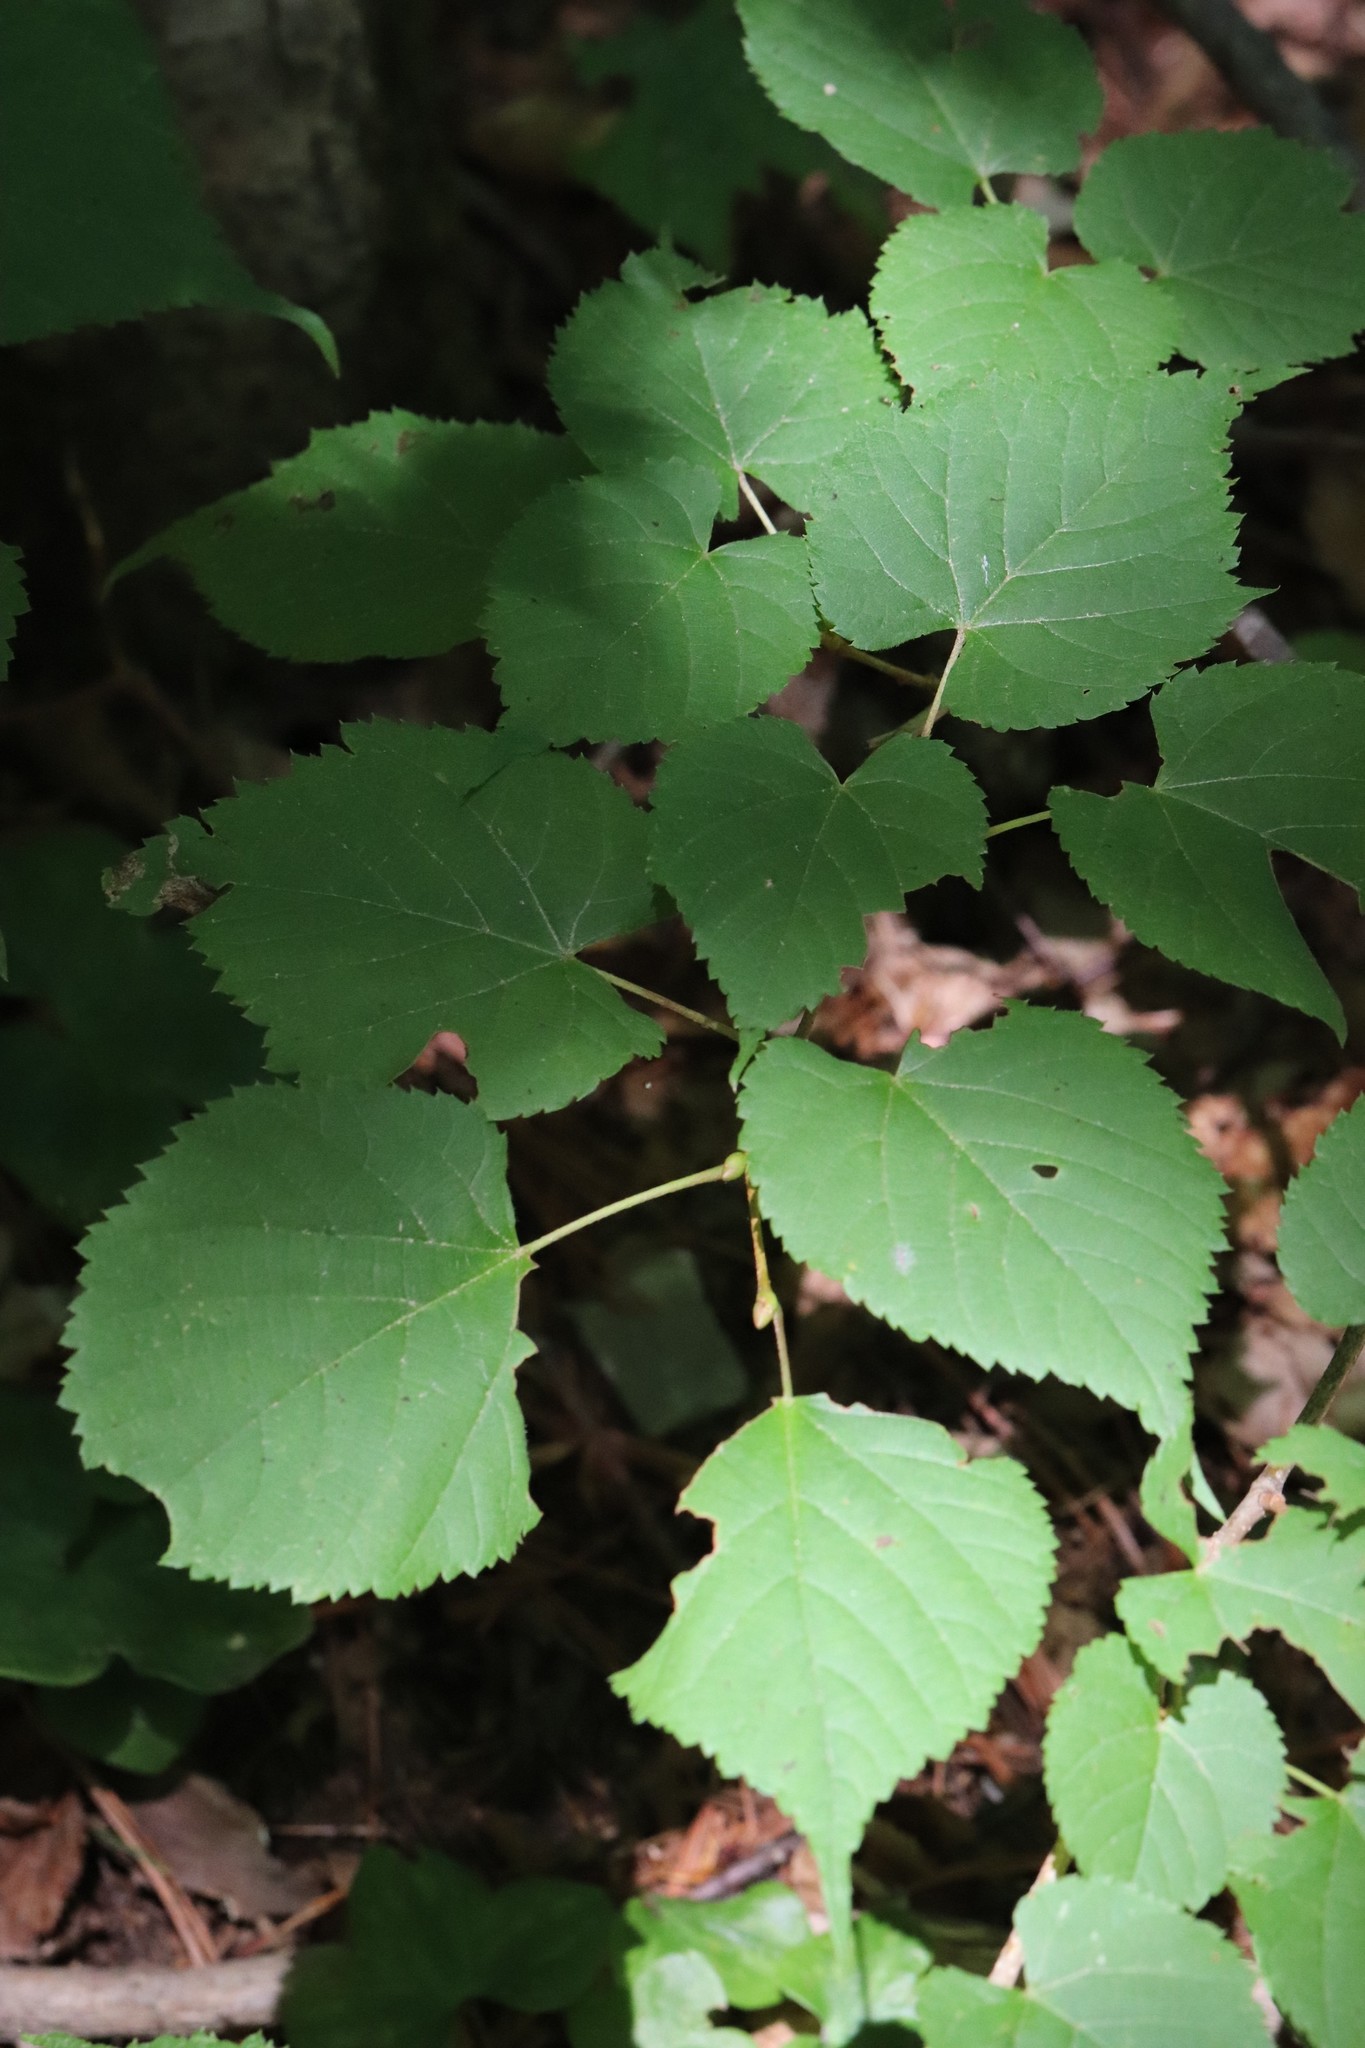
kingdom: Plantae
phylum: Tracheophyta
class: Magnoliopsida
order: Malvales
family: Malvaceae
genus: Tilia
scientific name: Tilia amurensis
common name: Amur lime
